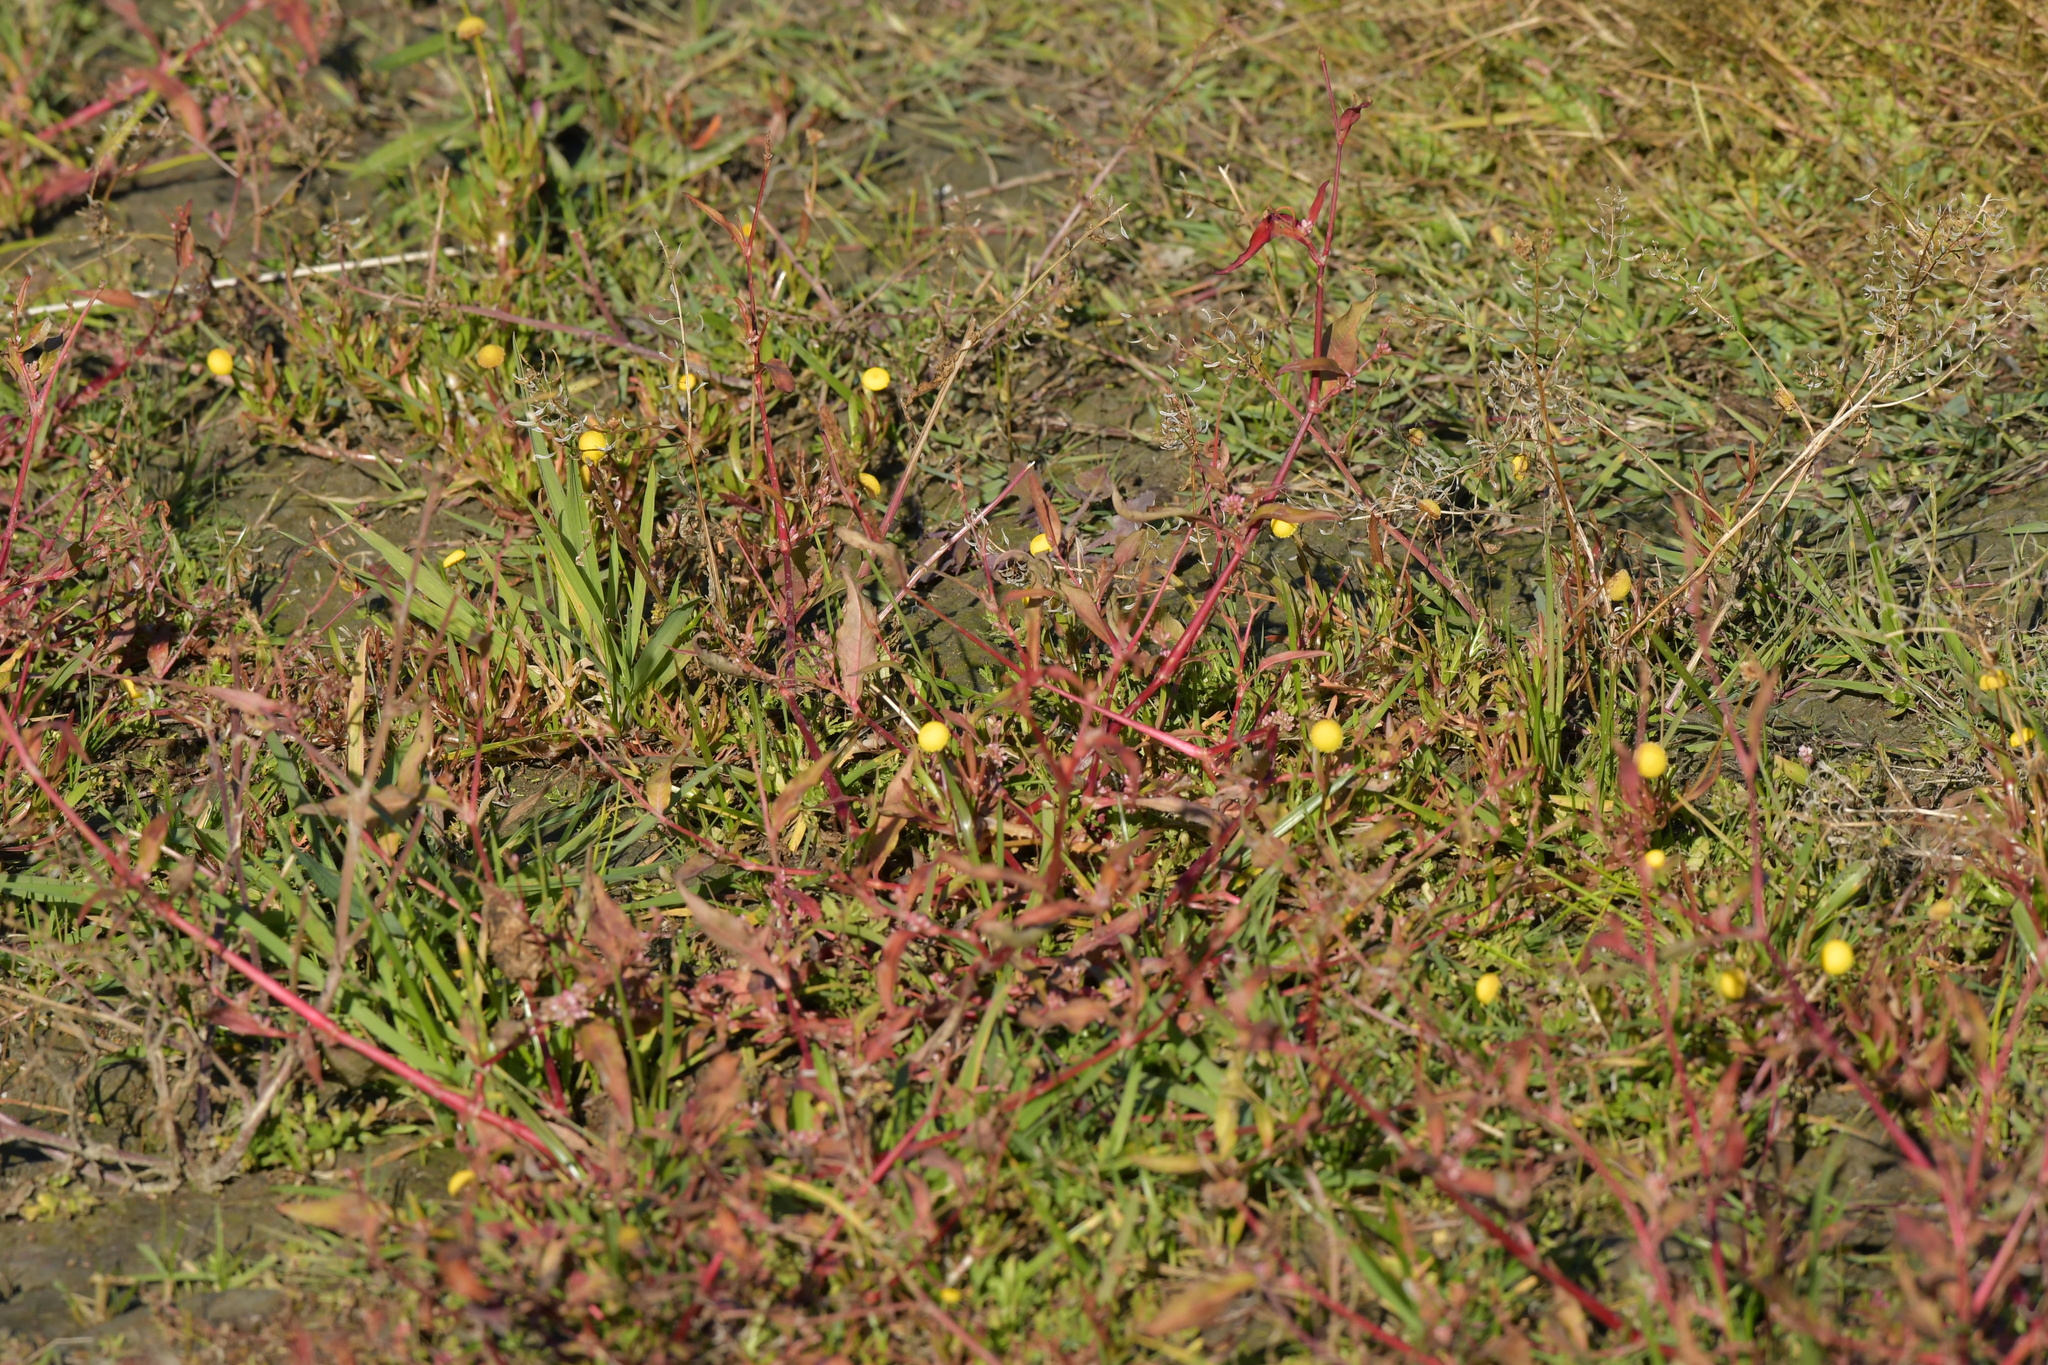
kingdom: Plantae
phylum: Tracheophyta
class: Magnoliopsida
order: Asterales
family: Asteraceae
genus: Cotula
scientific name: Cotula coronopifolia
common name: Buttonweed
